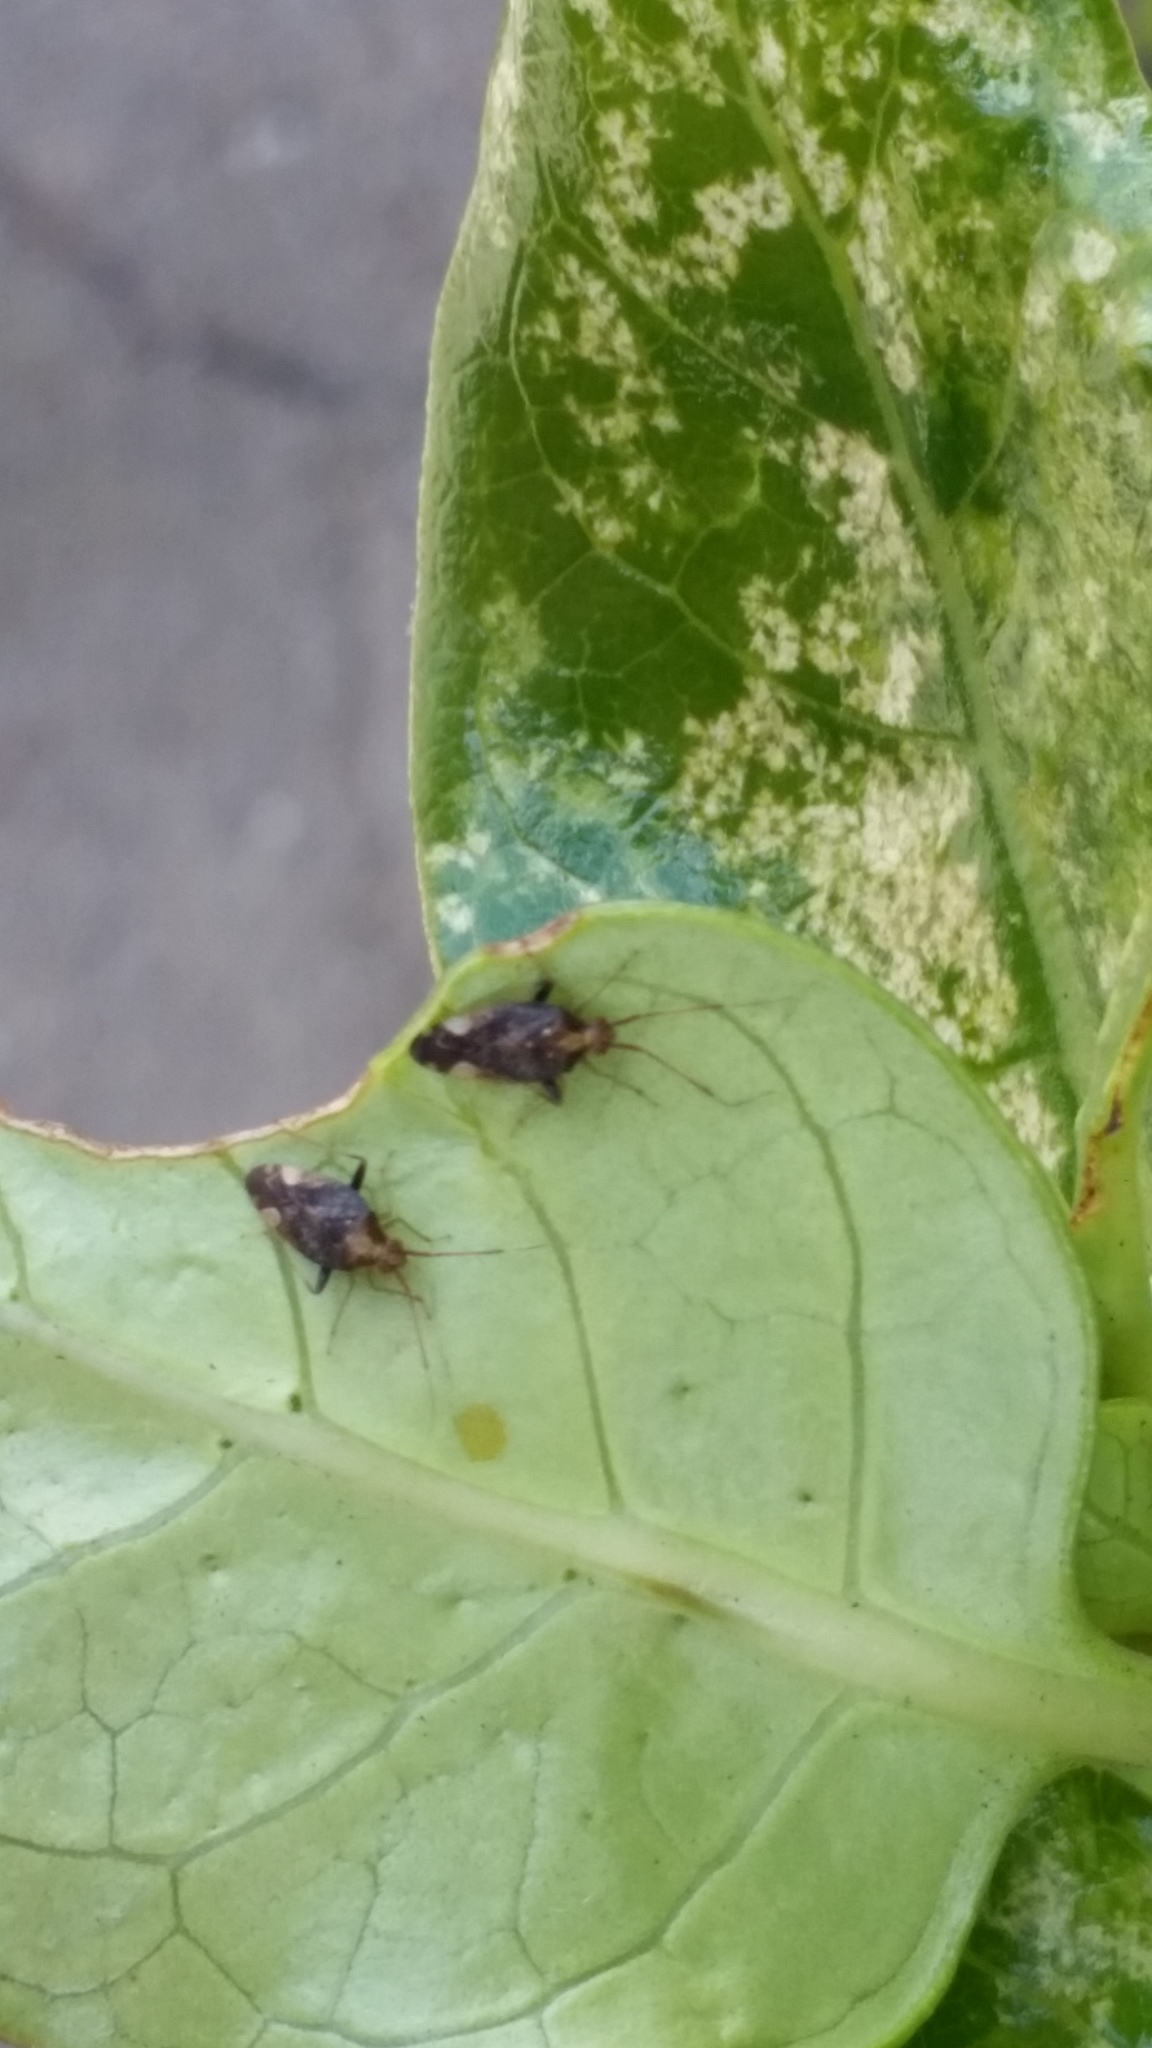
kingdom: Animalia
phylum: Arthropoda
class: Insecta
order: Hemiptera
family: Miridae
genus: Chinamiris
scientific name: Chinamiris indeclivis
